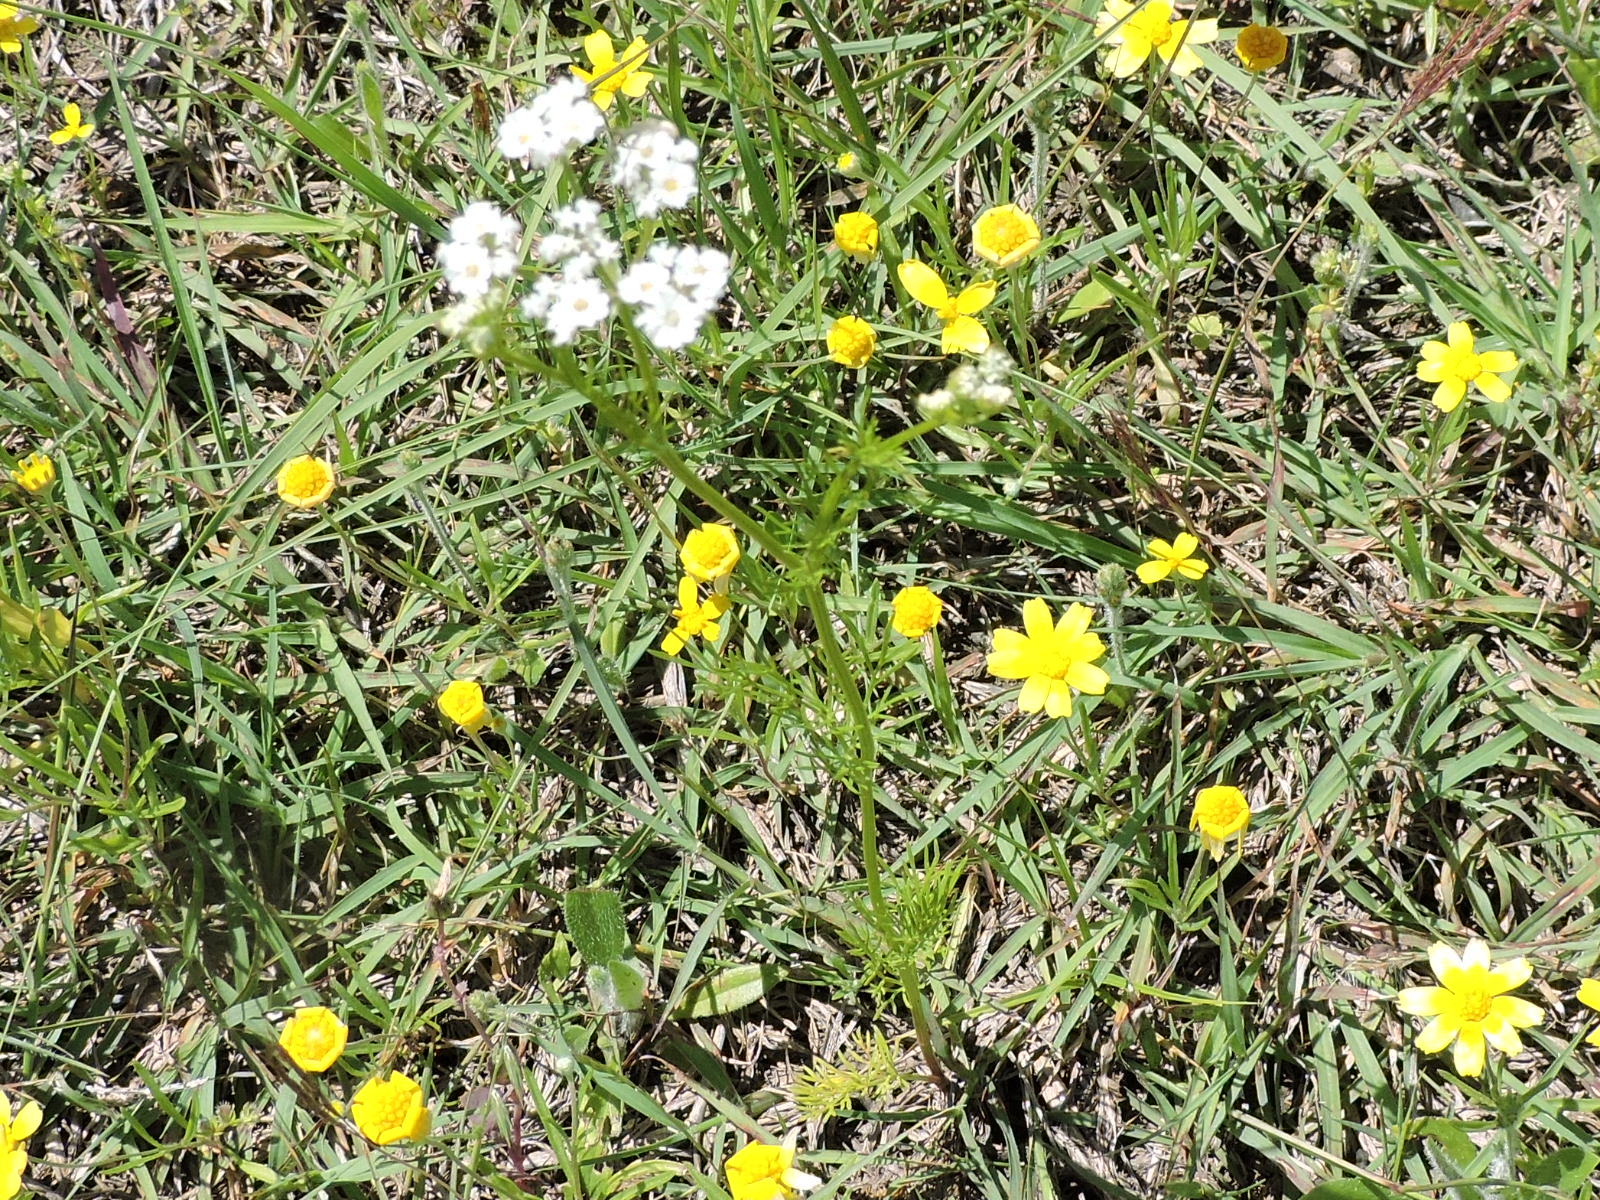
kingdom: Plantae
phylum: Tracheophyta
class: Magnoliopsida
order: Apiales
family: Apiaceae
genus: Atrema
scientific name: Atrema americanum
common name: Prairie-bishop
